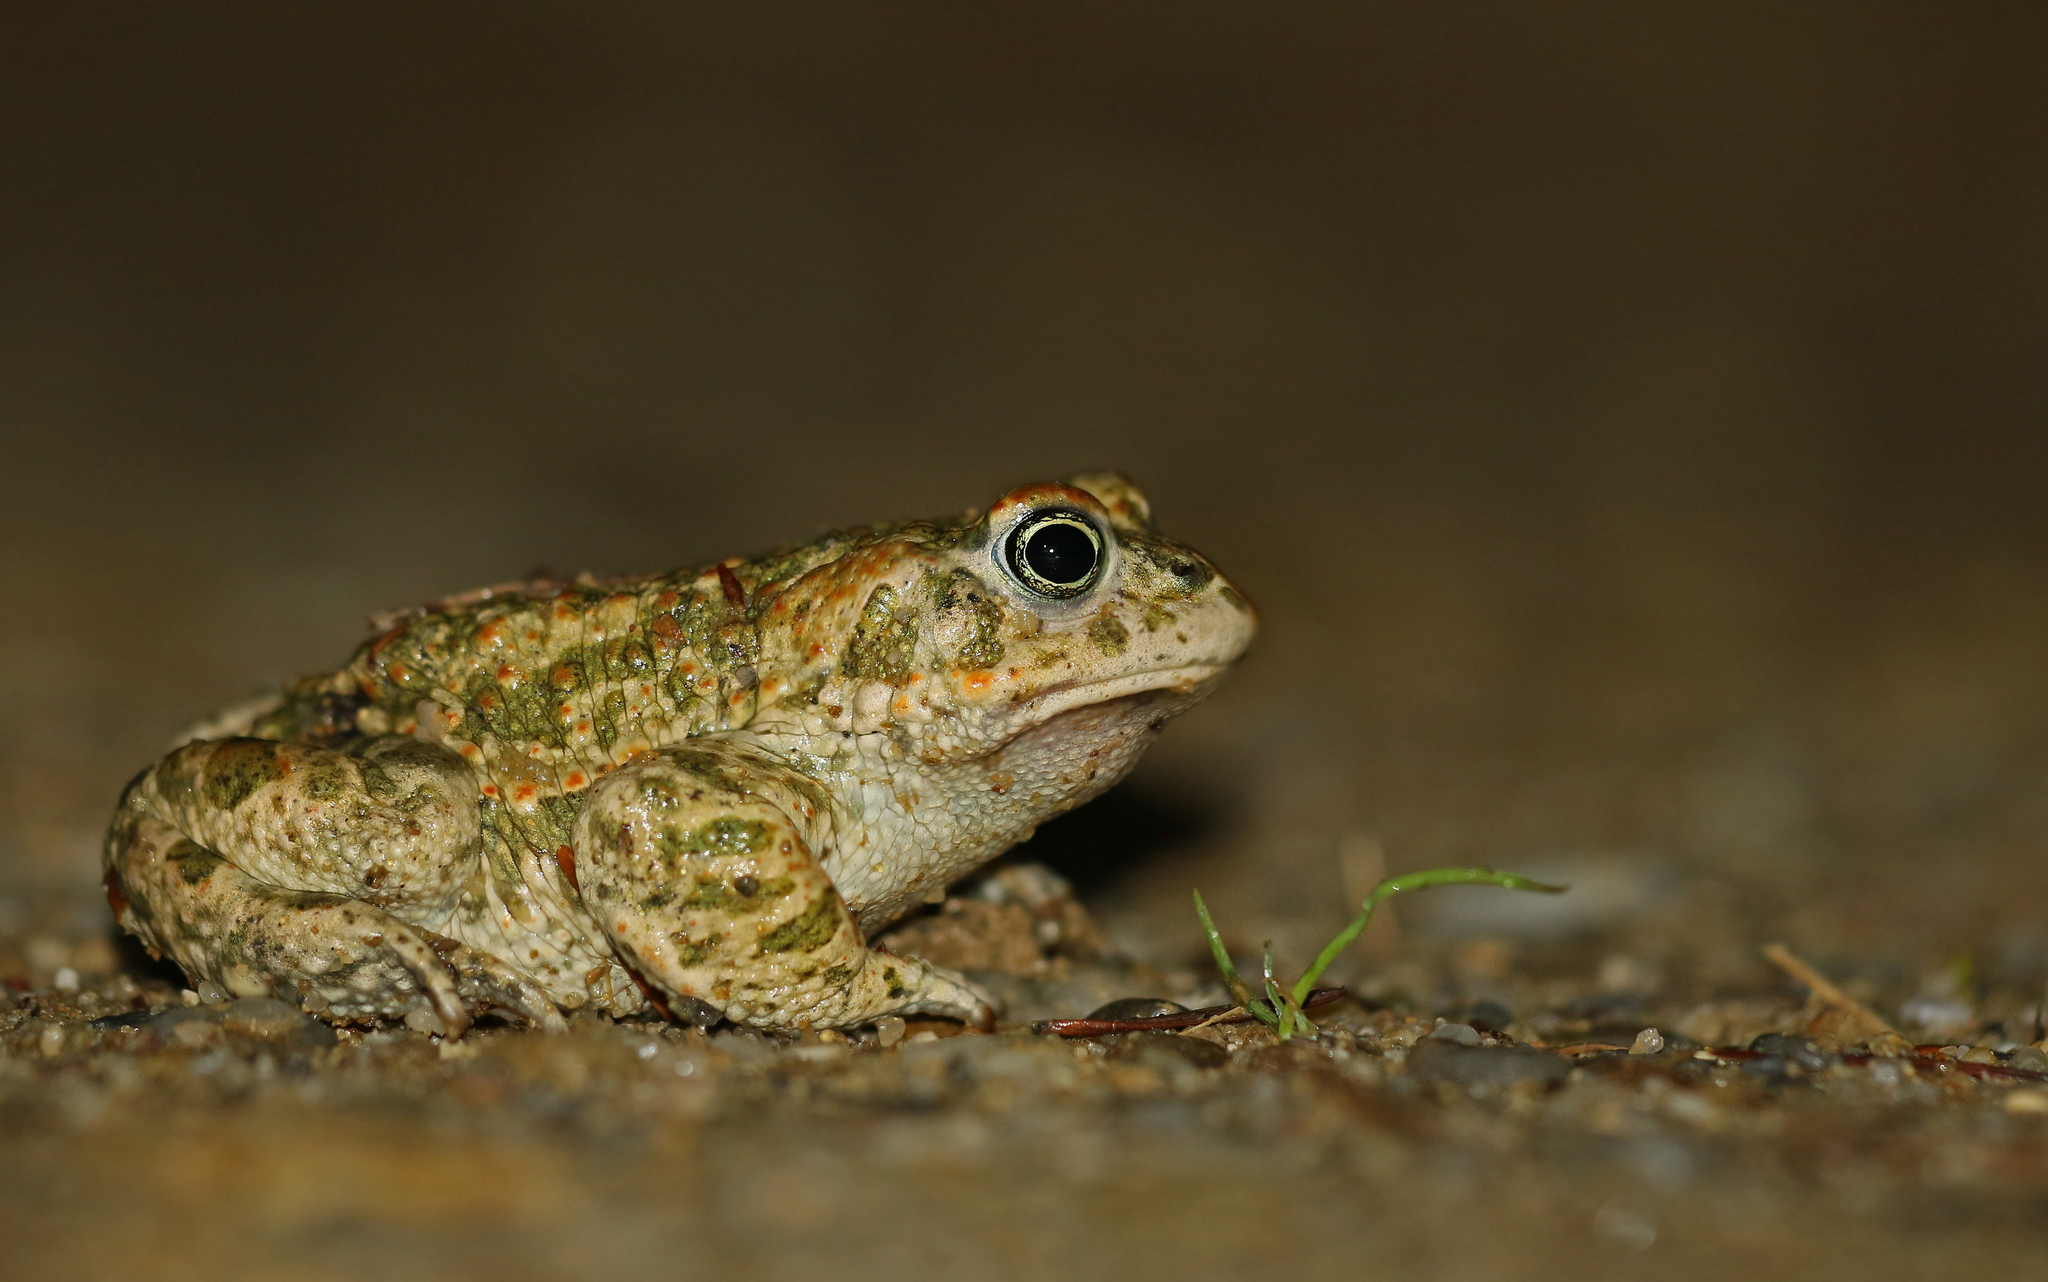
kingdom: Animalia
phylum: Chordata
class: Amphibia
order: Anura
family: Bufonidae
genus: Epidalea
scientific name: Epidalea calamita
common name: Natterjack toad
